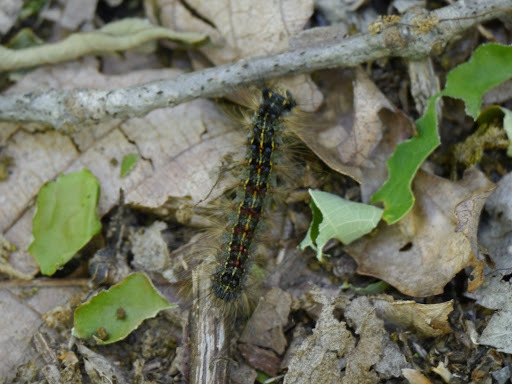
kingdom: Animalia
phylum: Arthropoda
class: Insecta
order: Lepidoptera
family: Erebidae
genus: Lymantria
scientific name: Lymantria dispar
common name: Gypsy moth
